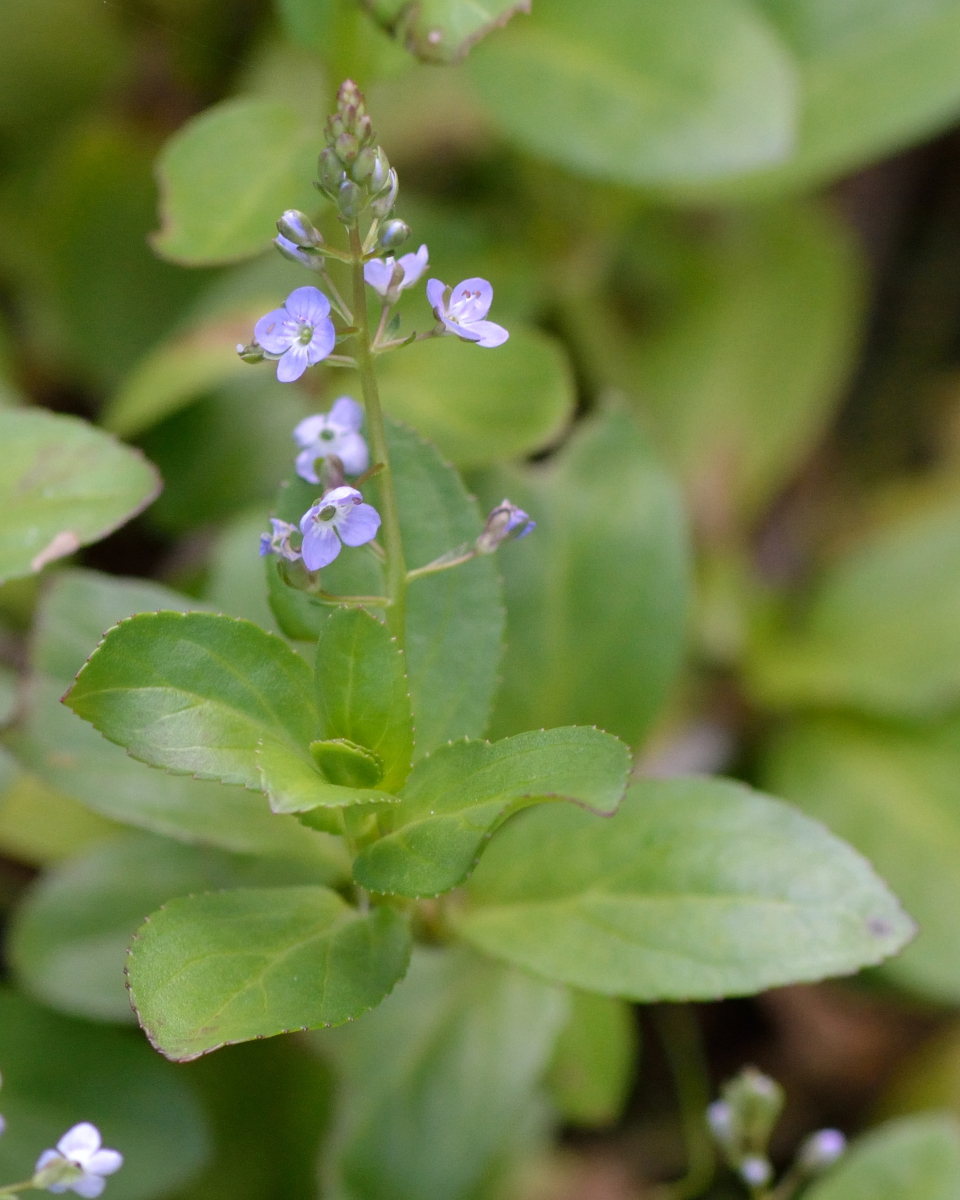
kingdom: Plantae
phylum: Tracheophyta
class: Magnoliopsida
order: Lamiales
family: Plantaginaceae
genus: Veronica
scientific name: Veronica beccabunga
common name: Brooklime
